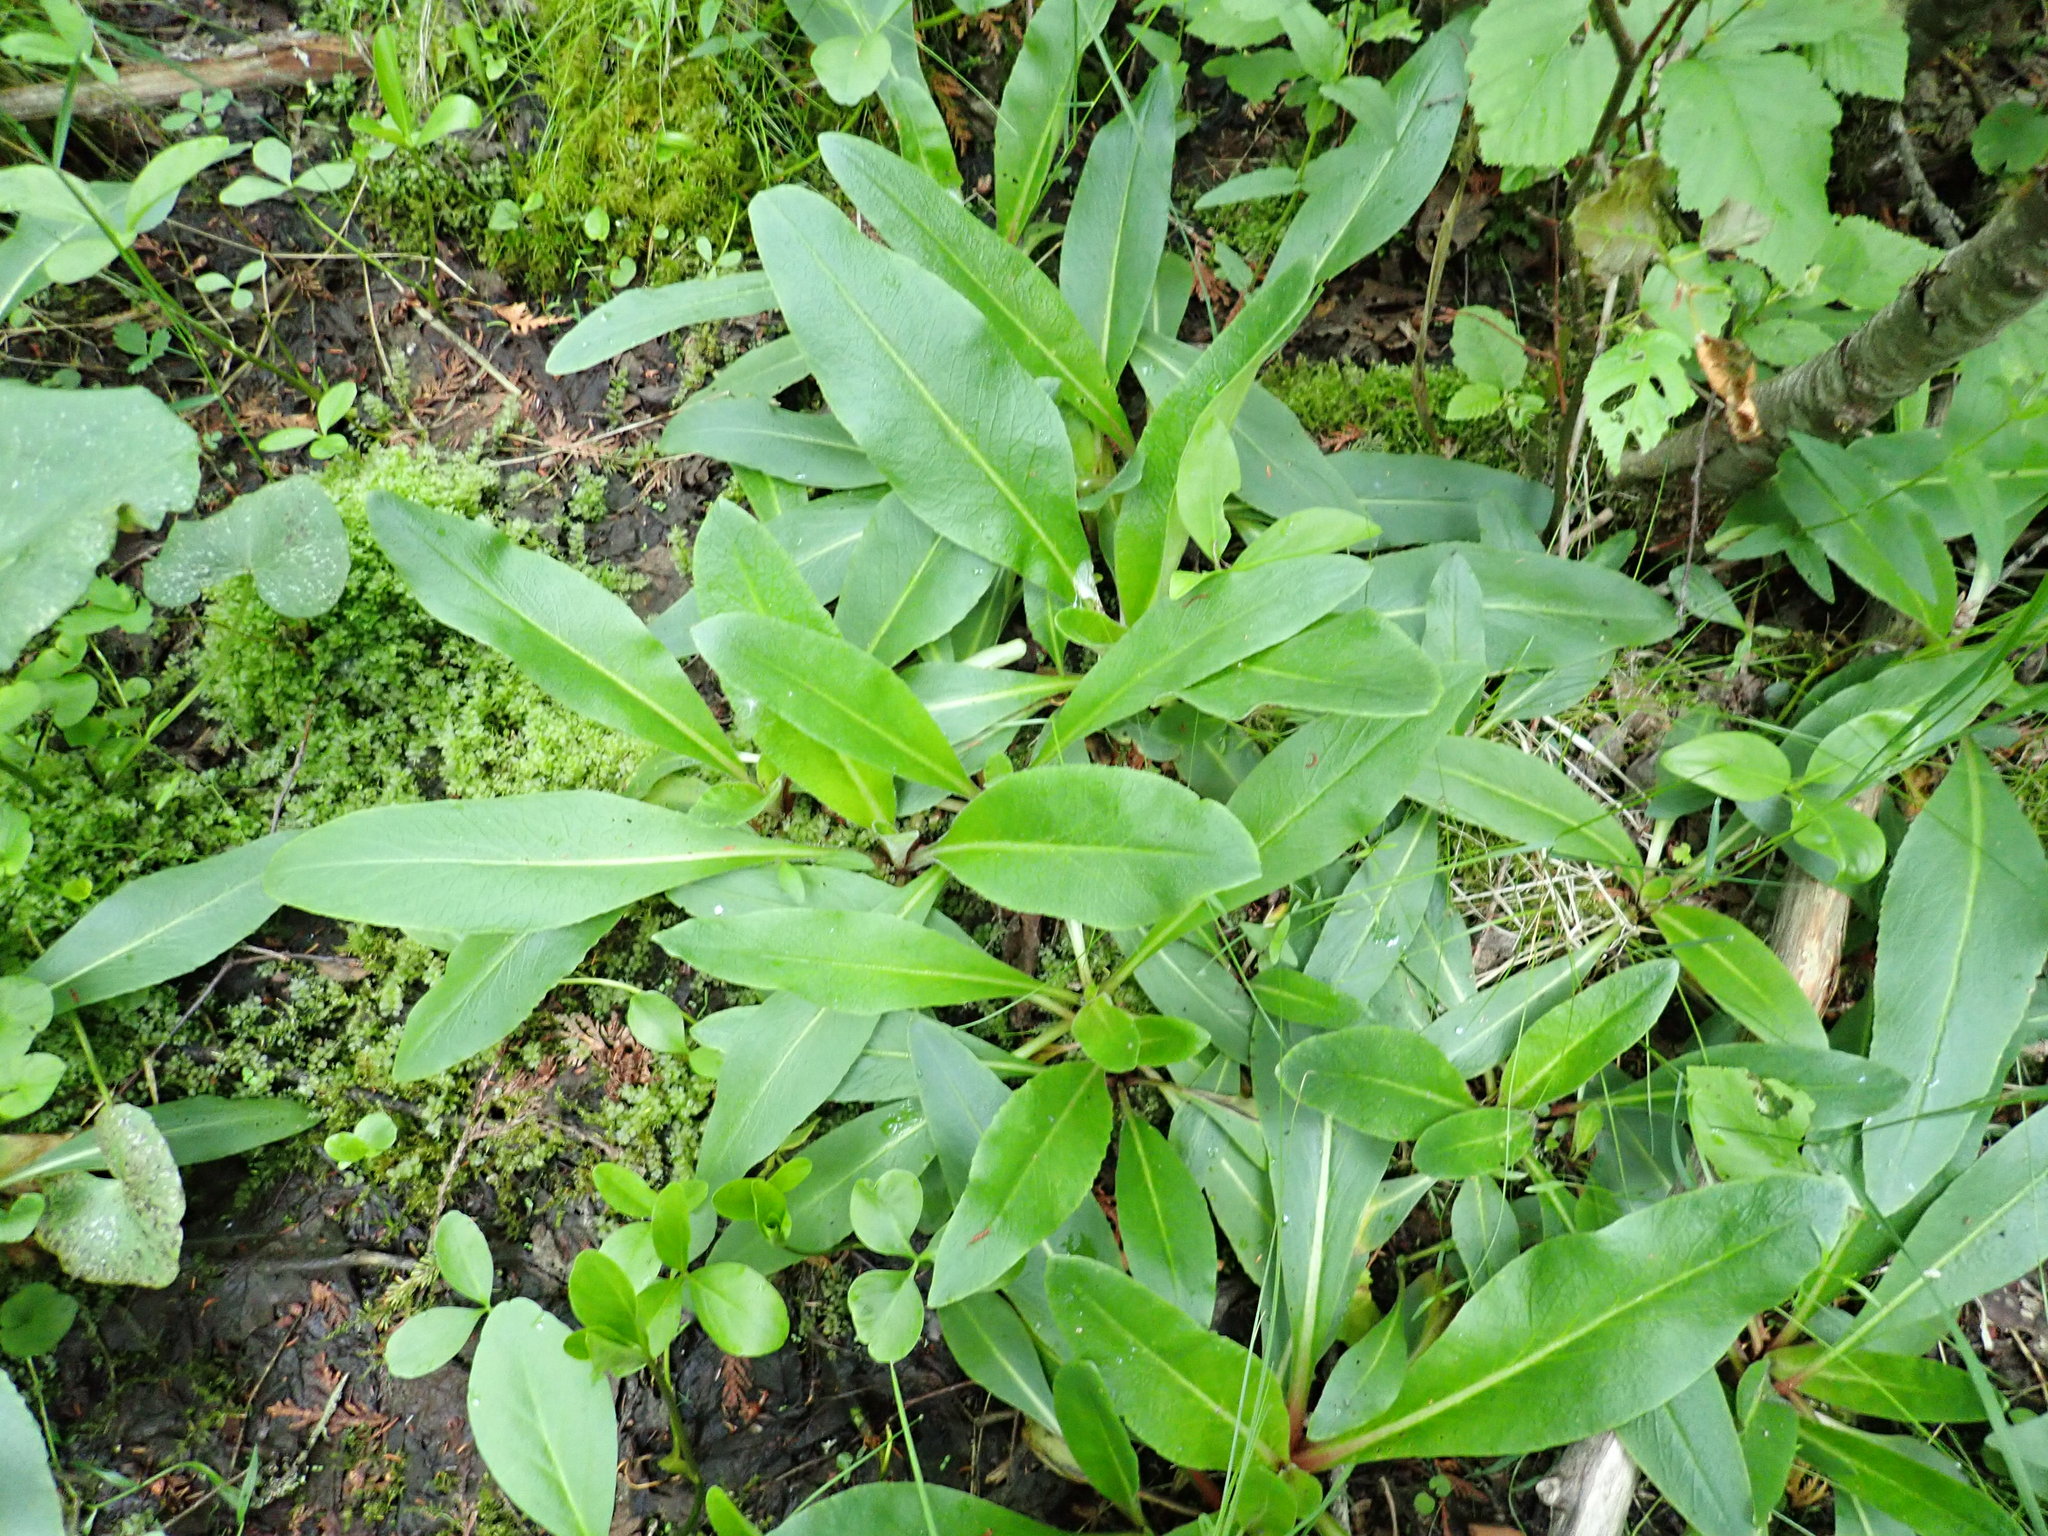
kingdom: Plantae
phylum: Tracheophyta
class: Magnoliopsida
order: Saxifragales
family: Saxifragaceae
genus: Micranthes
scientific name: Micranthes pensylvanica
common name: Marsh saxifrage
